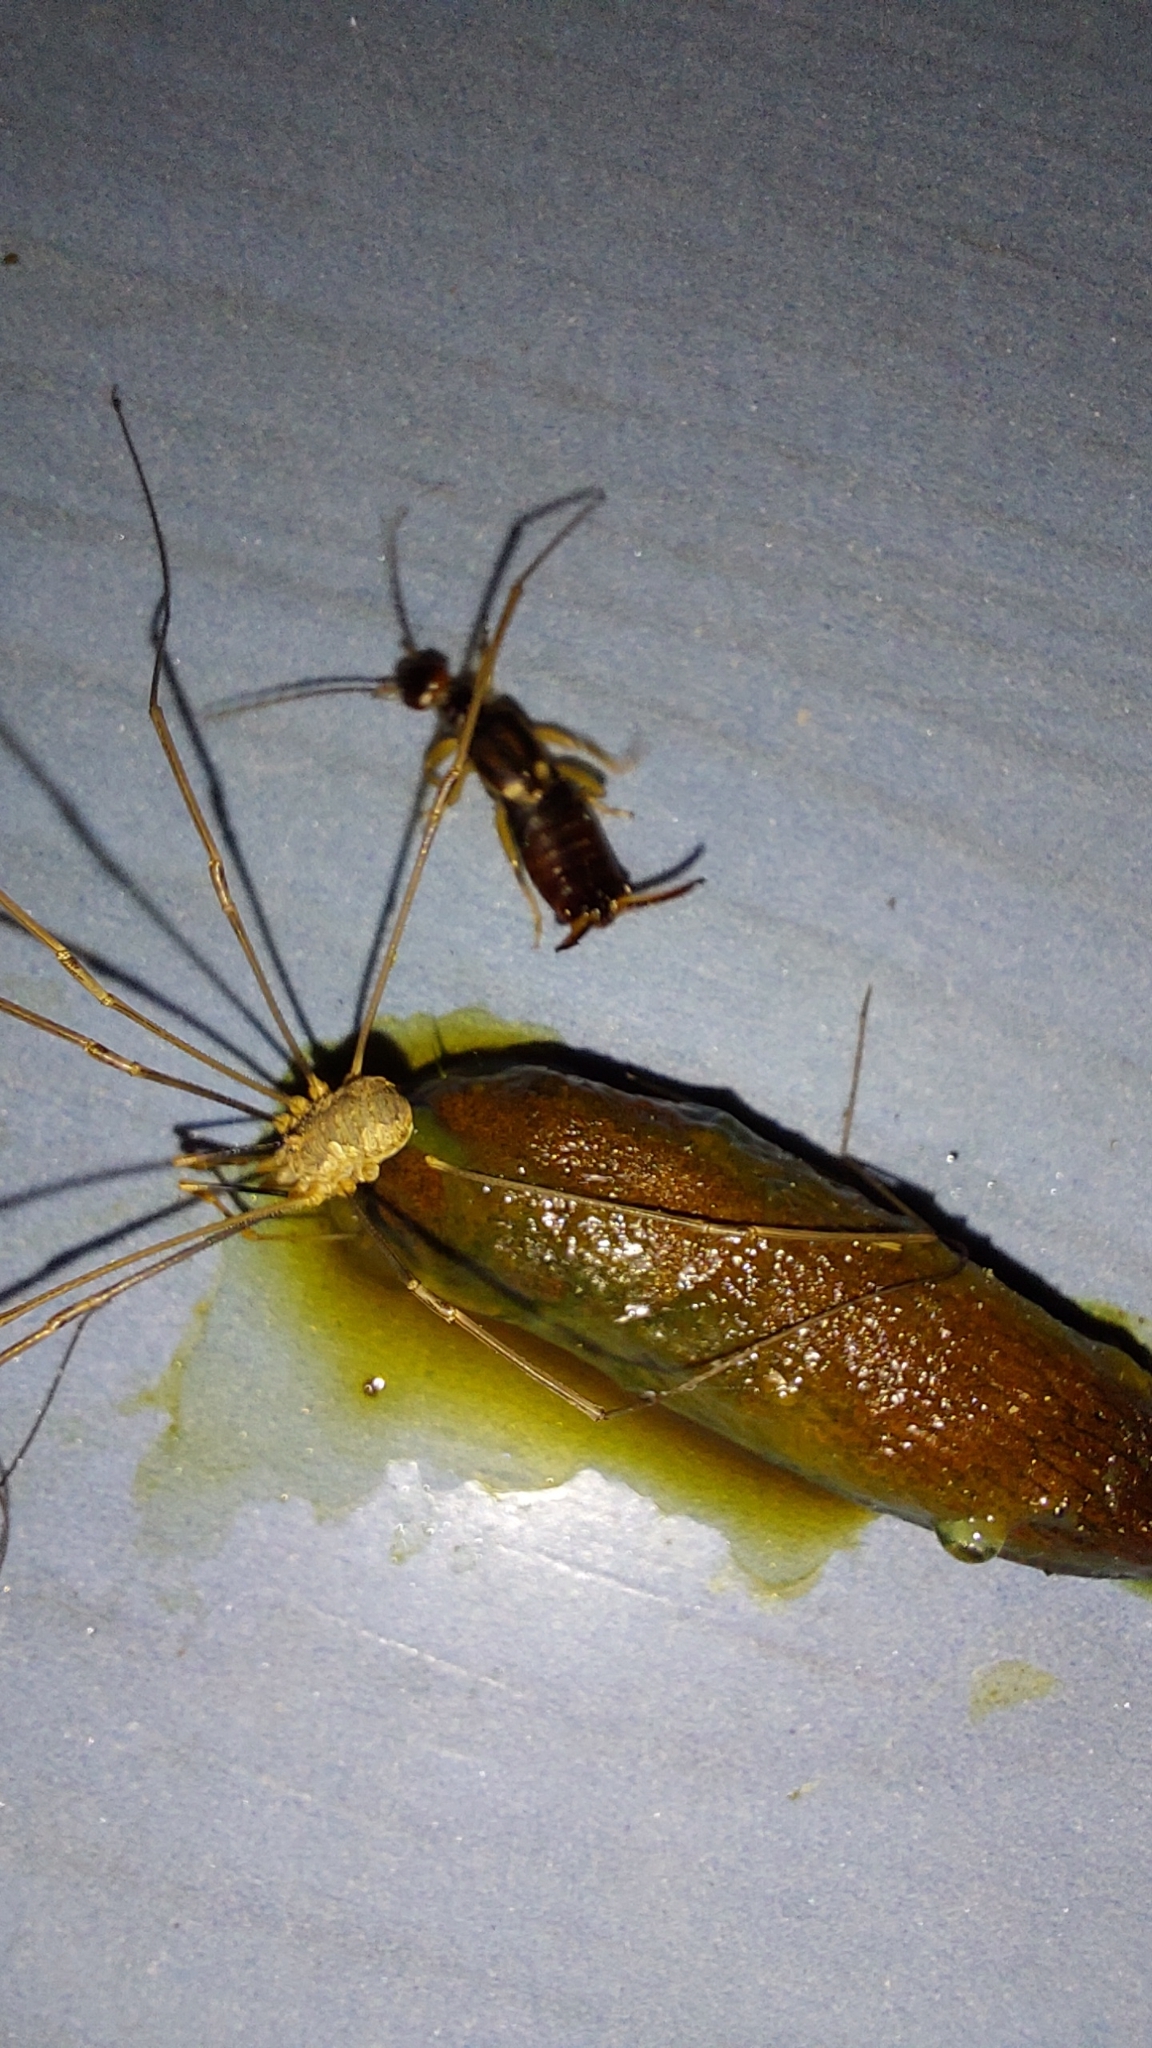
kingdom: Animalia
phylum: Arthropoda
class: Arachnida
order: Opiliones
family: Phalangiidae
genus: Phalangium
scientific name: Phalangium opilio
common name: Daddy longleg
